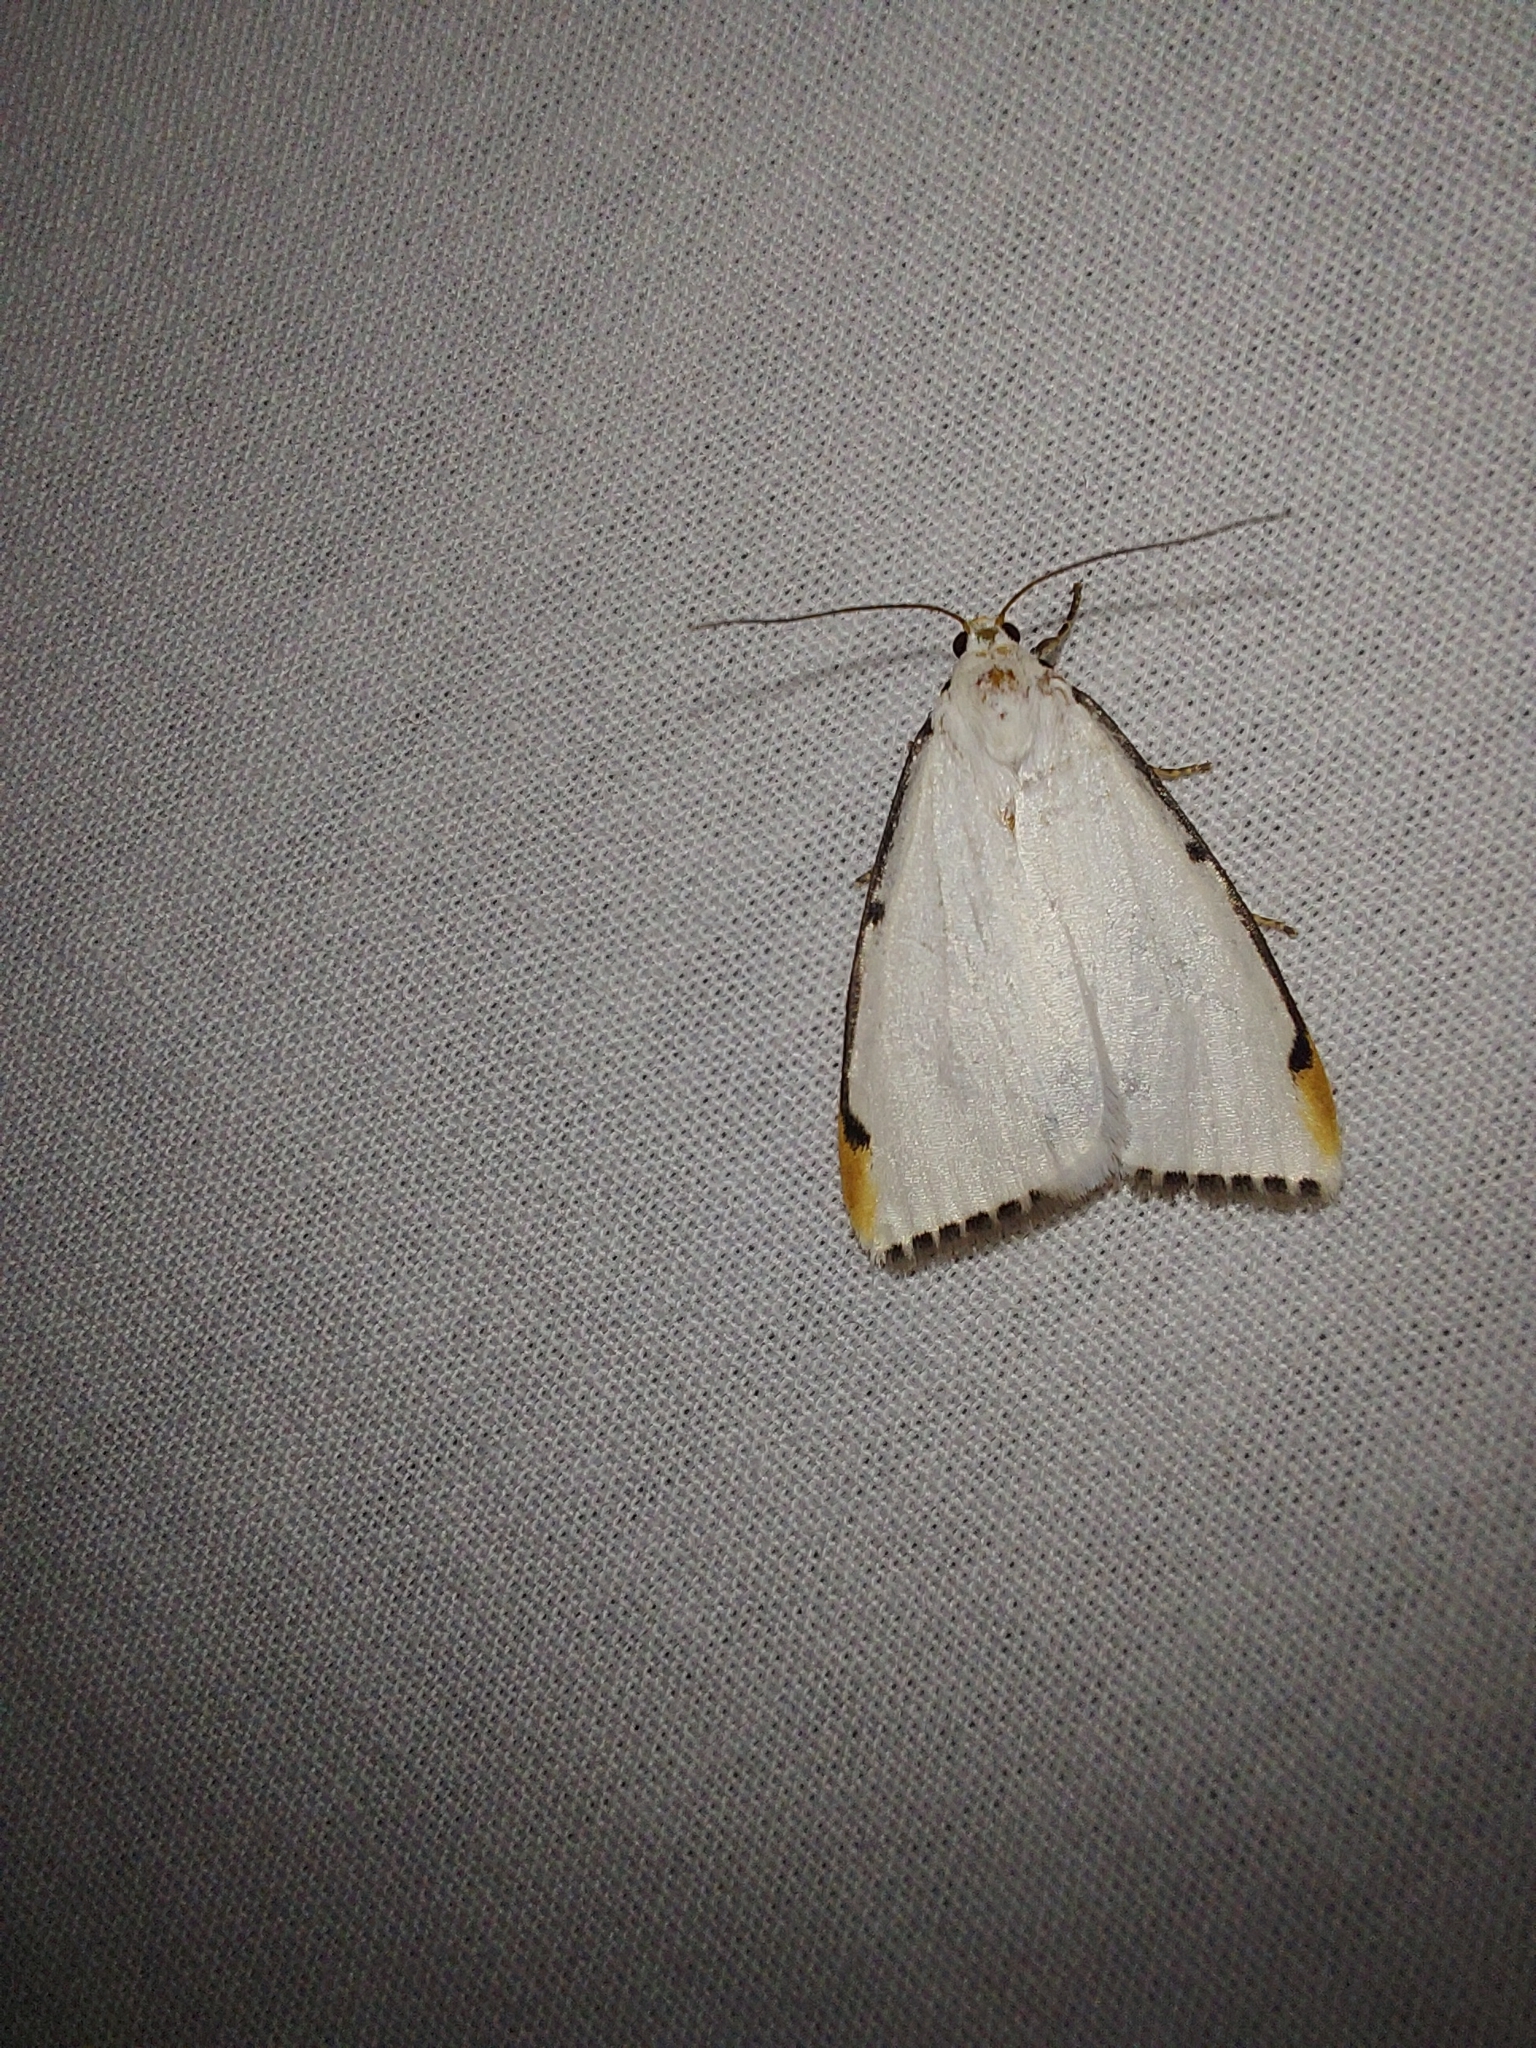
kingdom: Animalia
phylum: Arthropoda
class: Insecta
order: Lepidoptera
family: Erebidae
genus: Termessa
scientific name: Termessa nivosa
